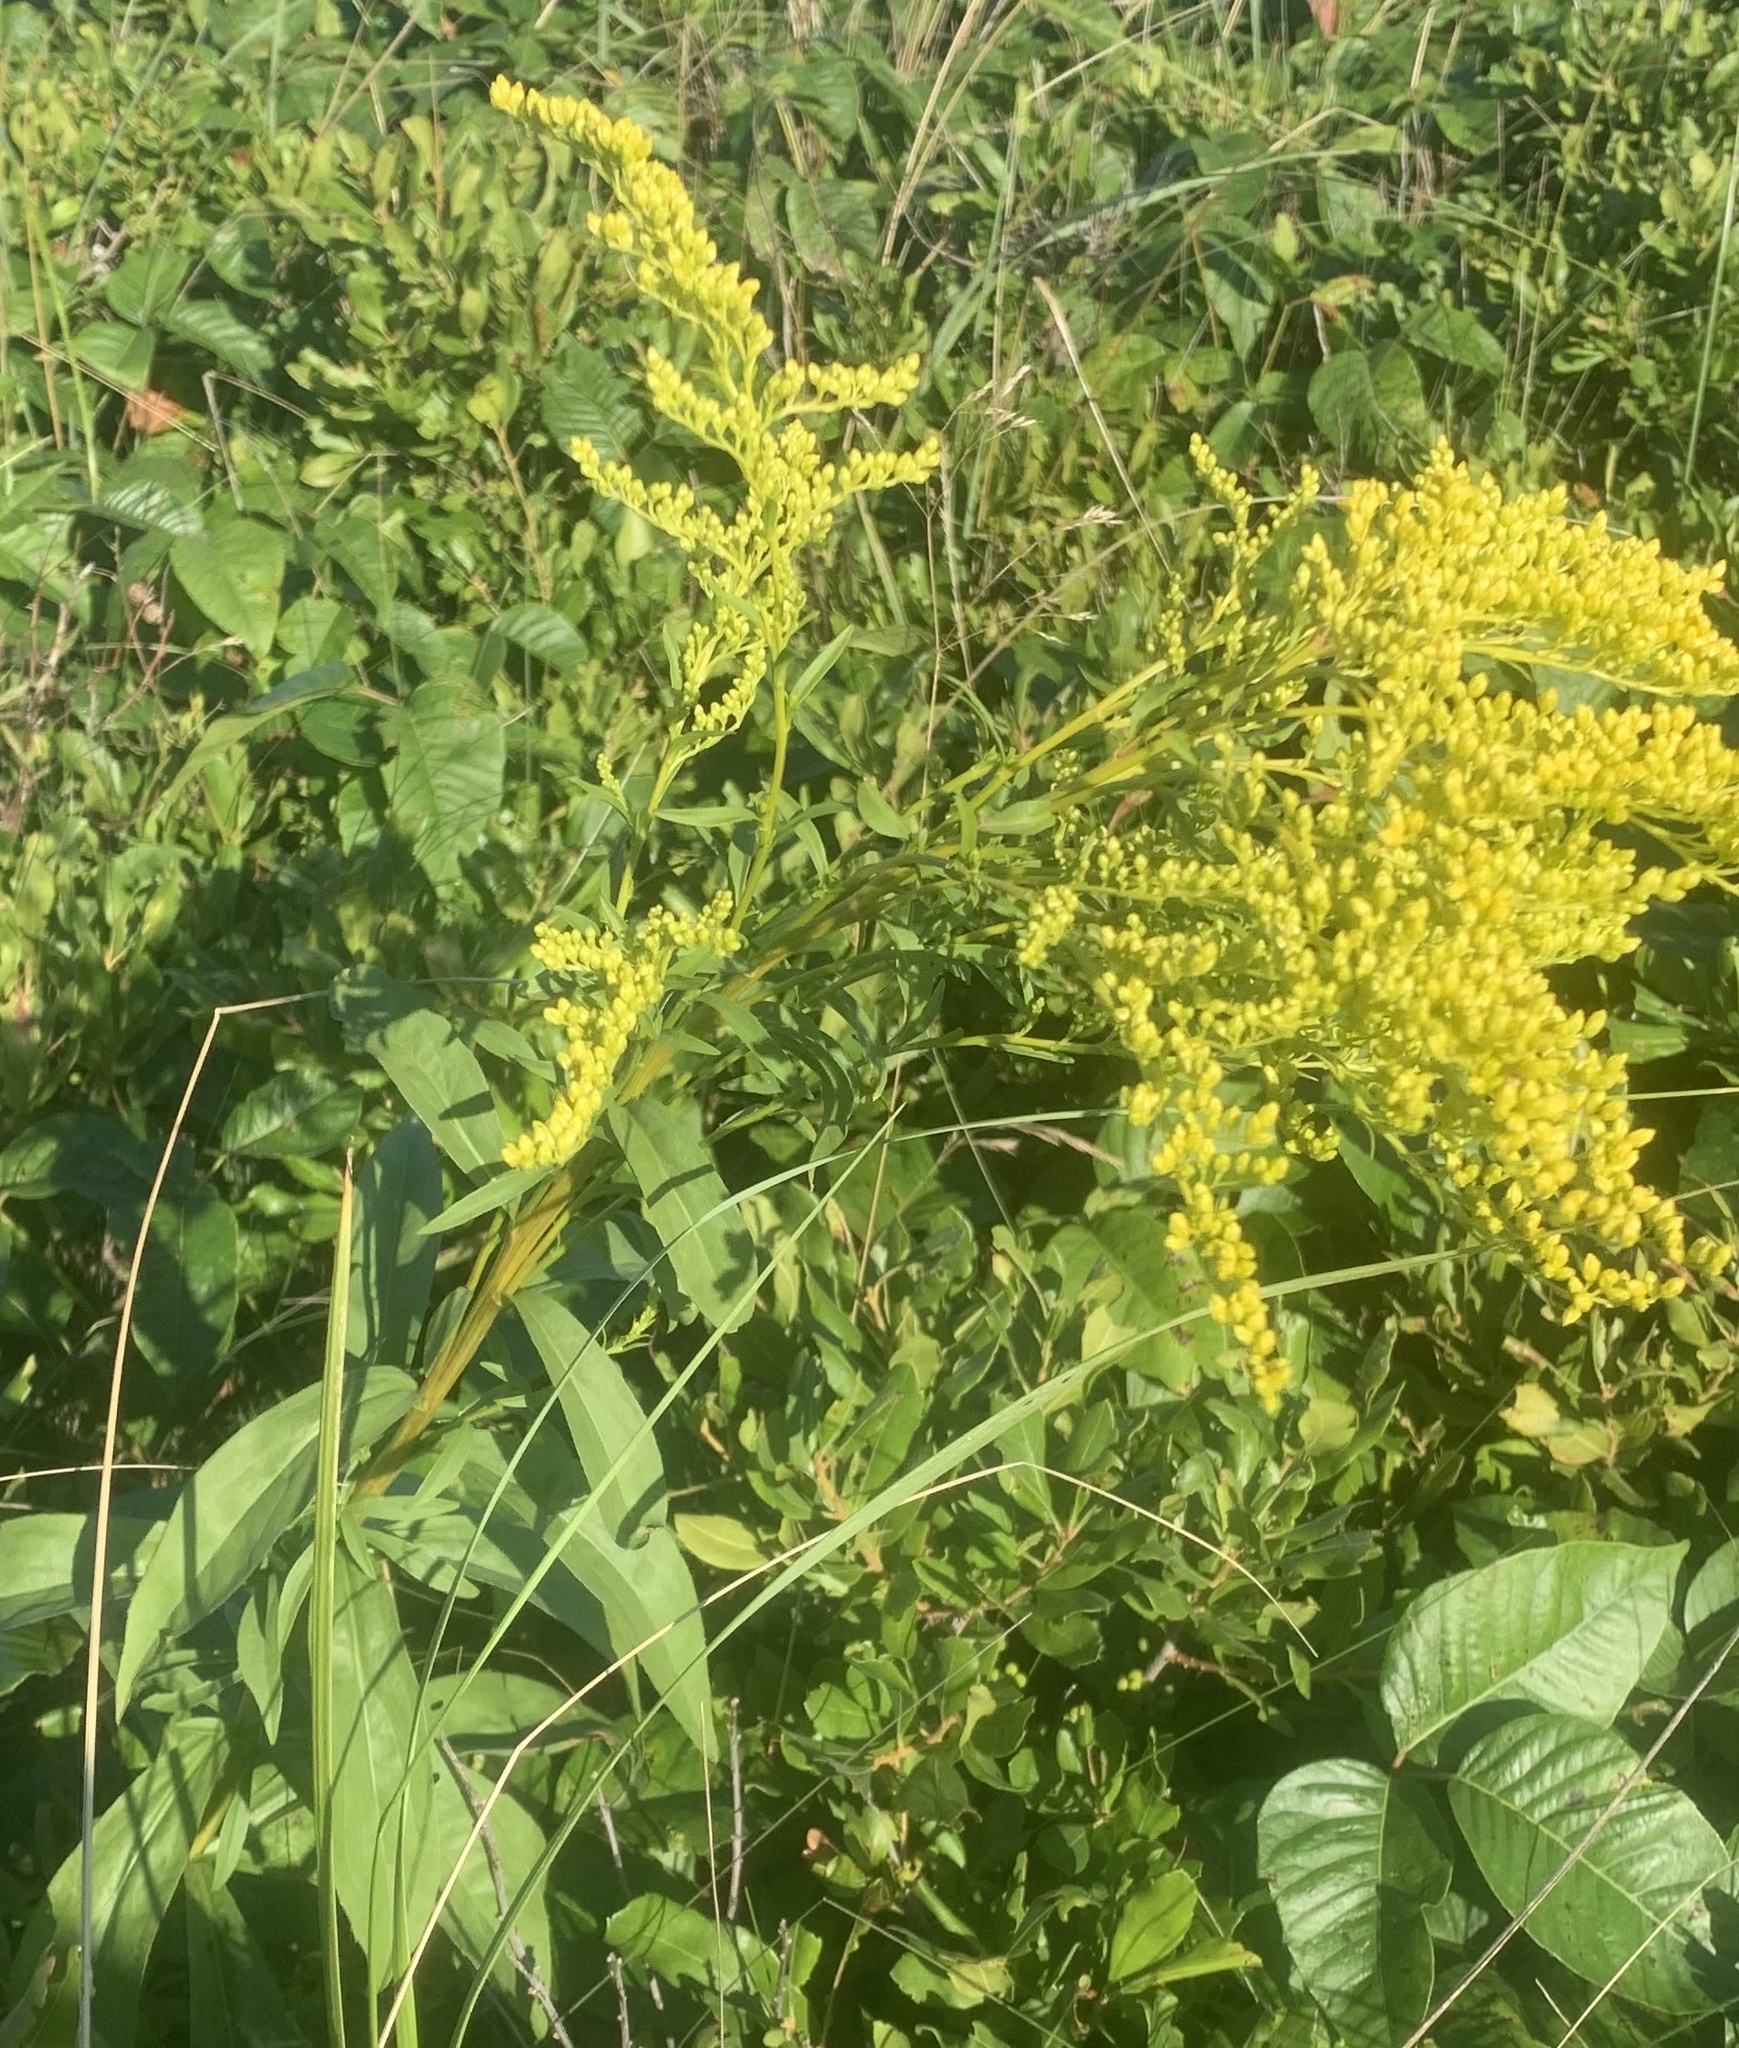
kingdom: Plantae
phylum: Tracheophyta
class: Magnoliopsida
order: Asterales
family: Asteraceae
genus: Solidago
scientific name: Solidago juncea
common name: Early goldenrod
